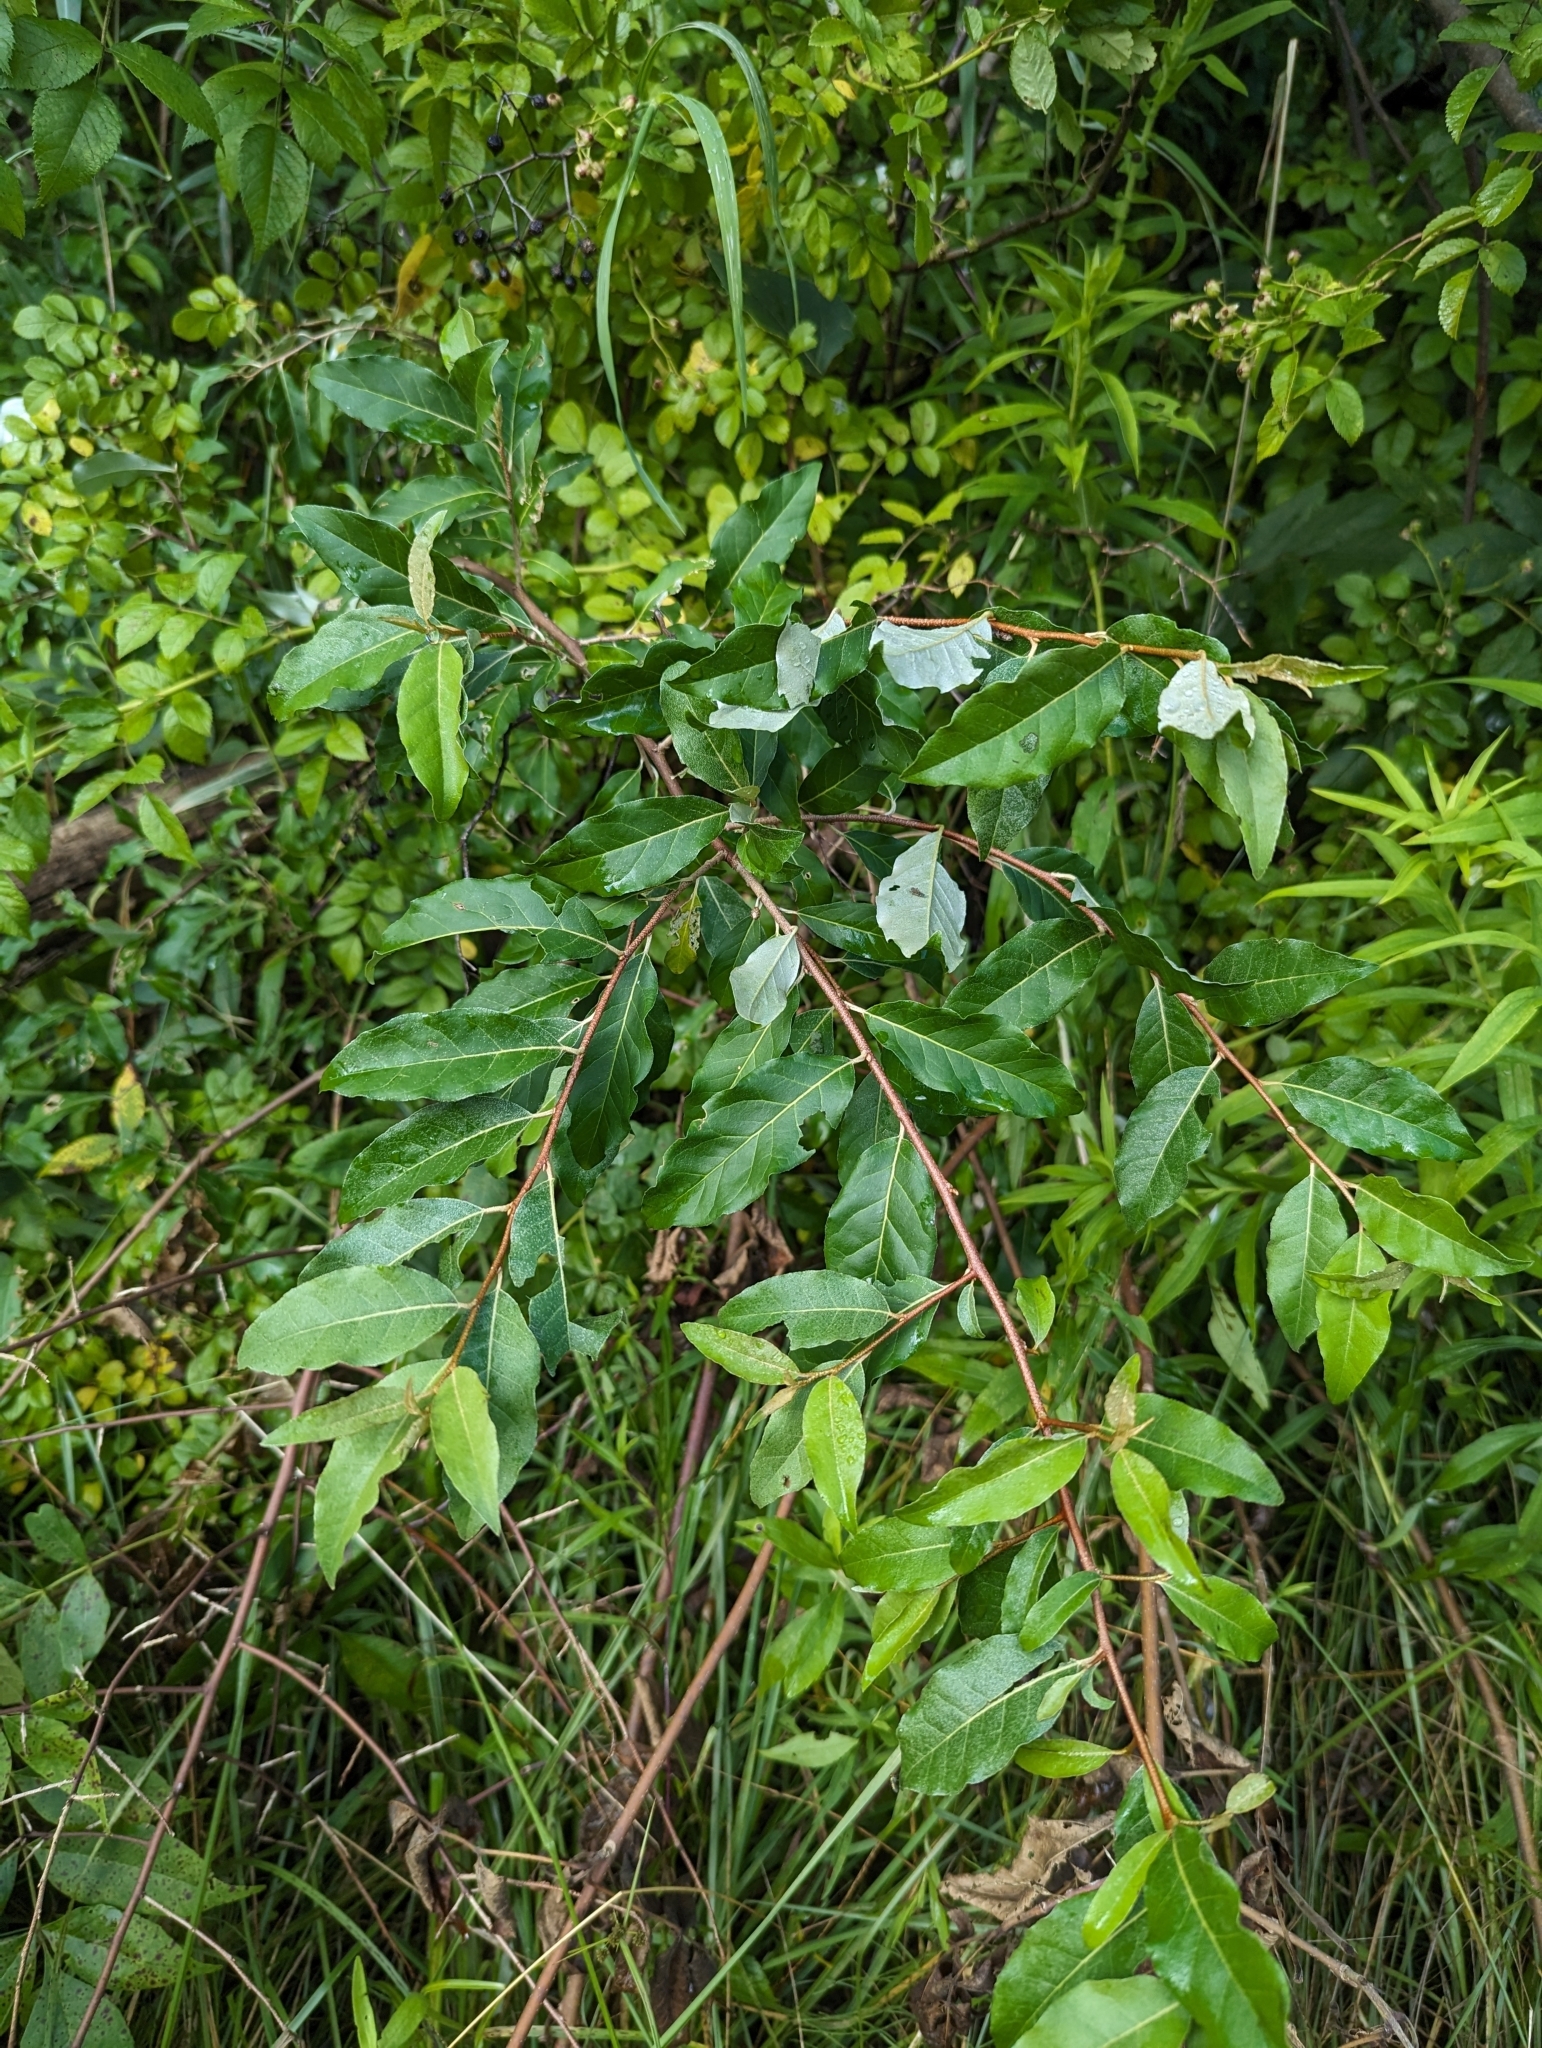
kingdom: Plantae
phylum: Tracheophyta
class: Magnoliopsida
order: Rosales
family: Elaeagnaceae
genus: Elaeagnus
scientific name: Elaeagnus umbellata
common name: Autumn olive
